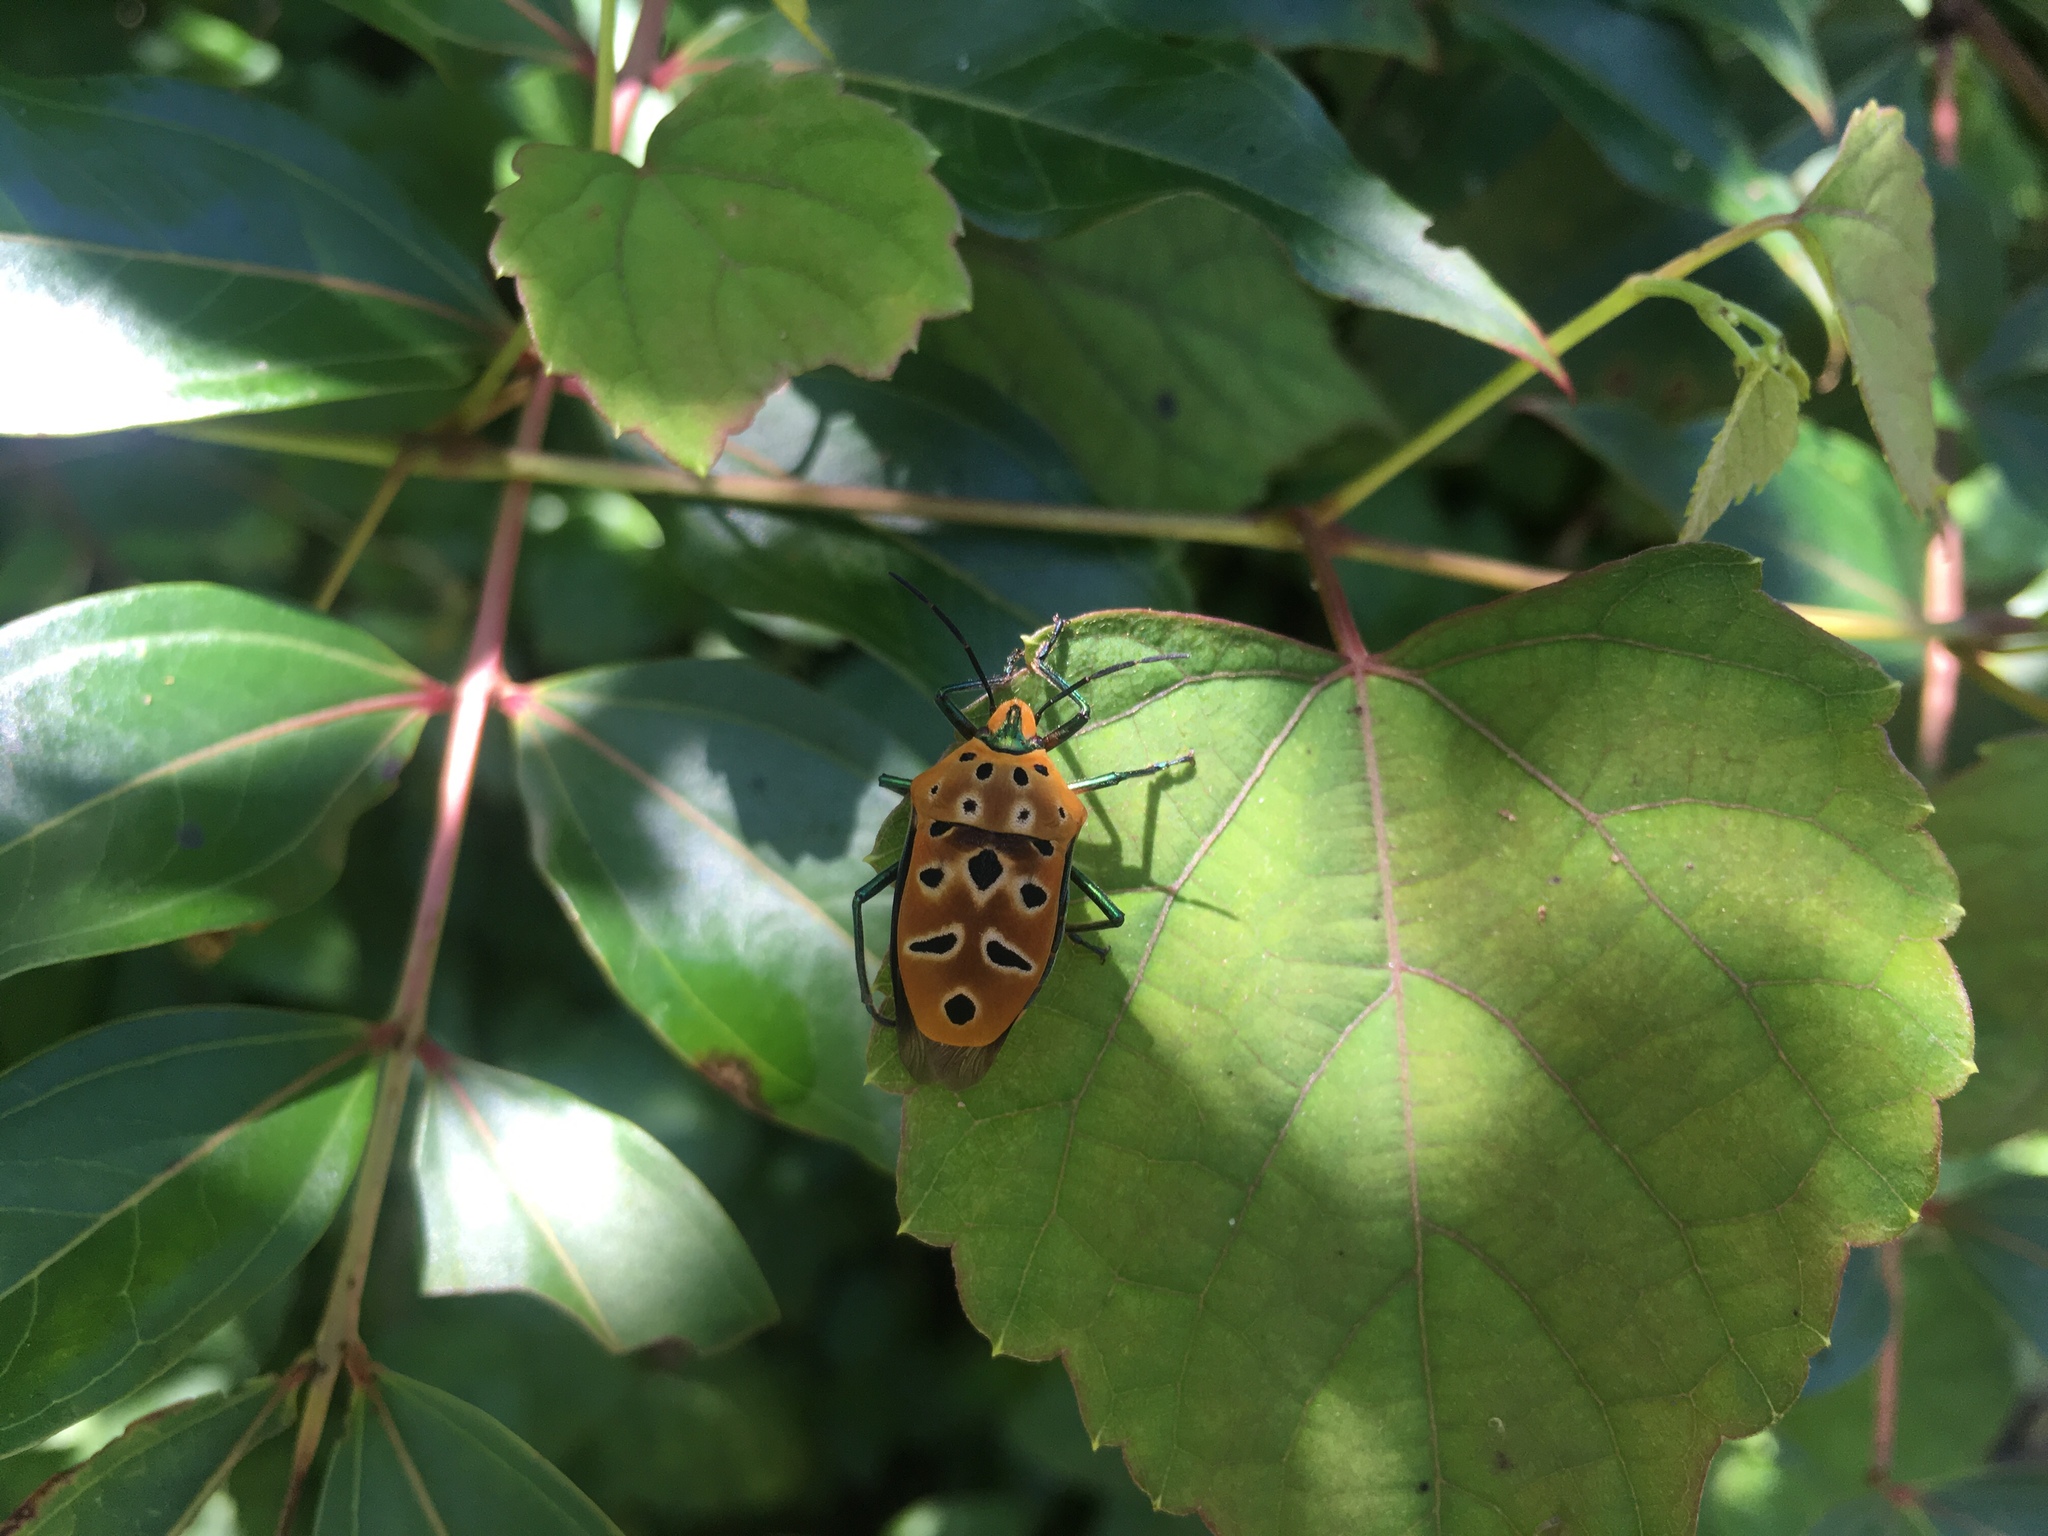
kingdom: Animalia
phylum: Arthropoda
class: Insecta
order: Hemiptera
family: Scutelleridae
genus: Cantao
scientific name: Cantao ocellatus
